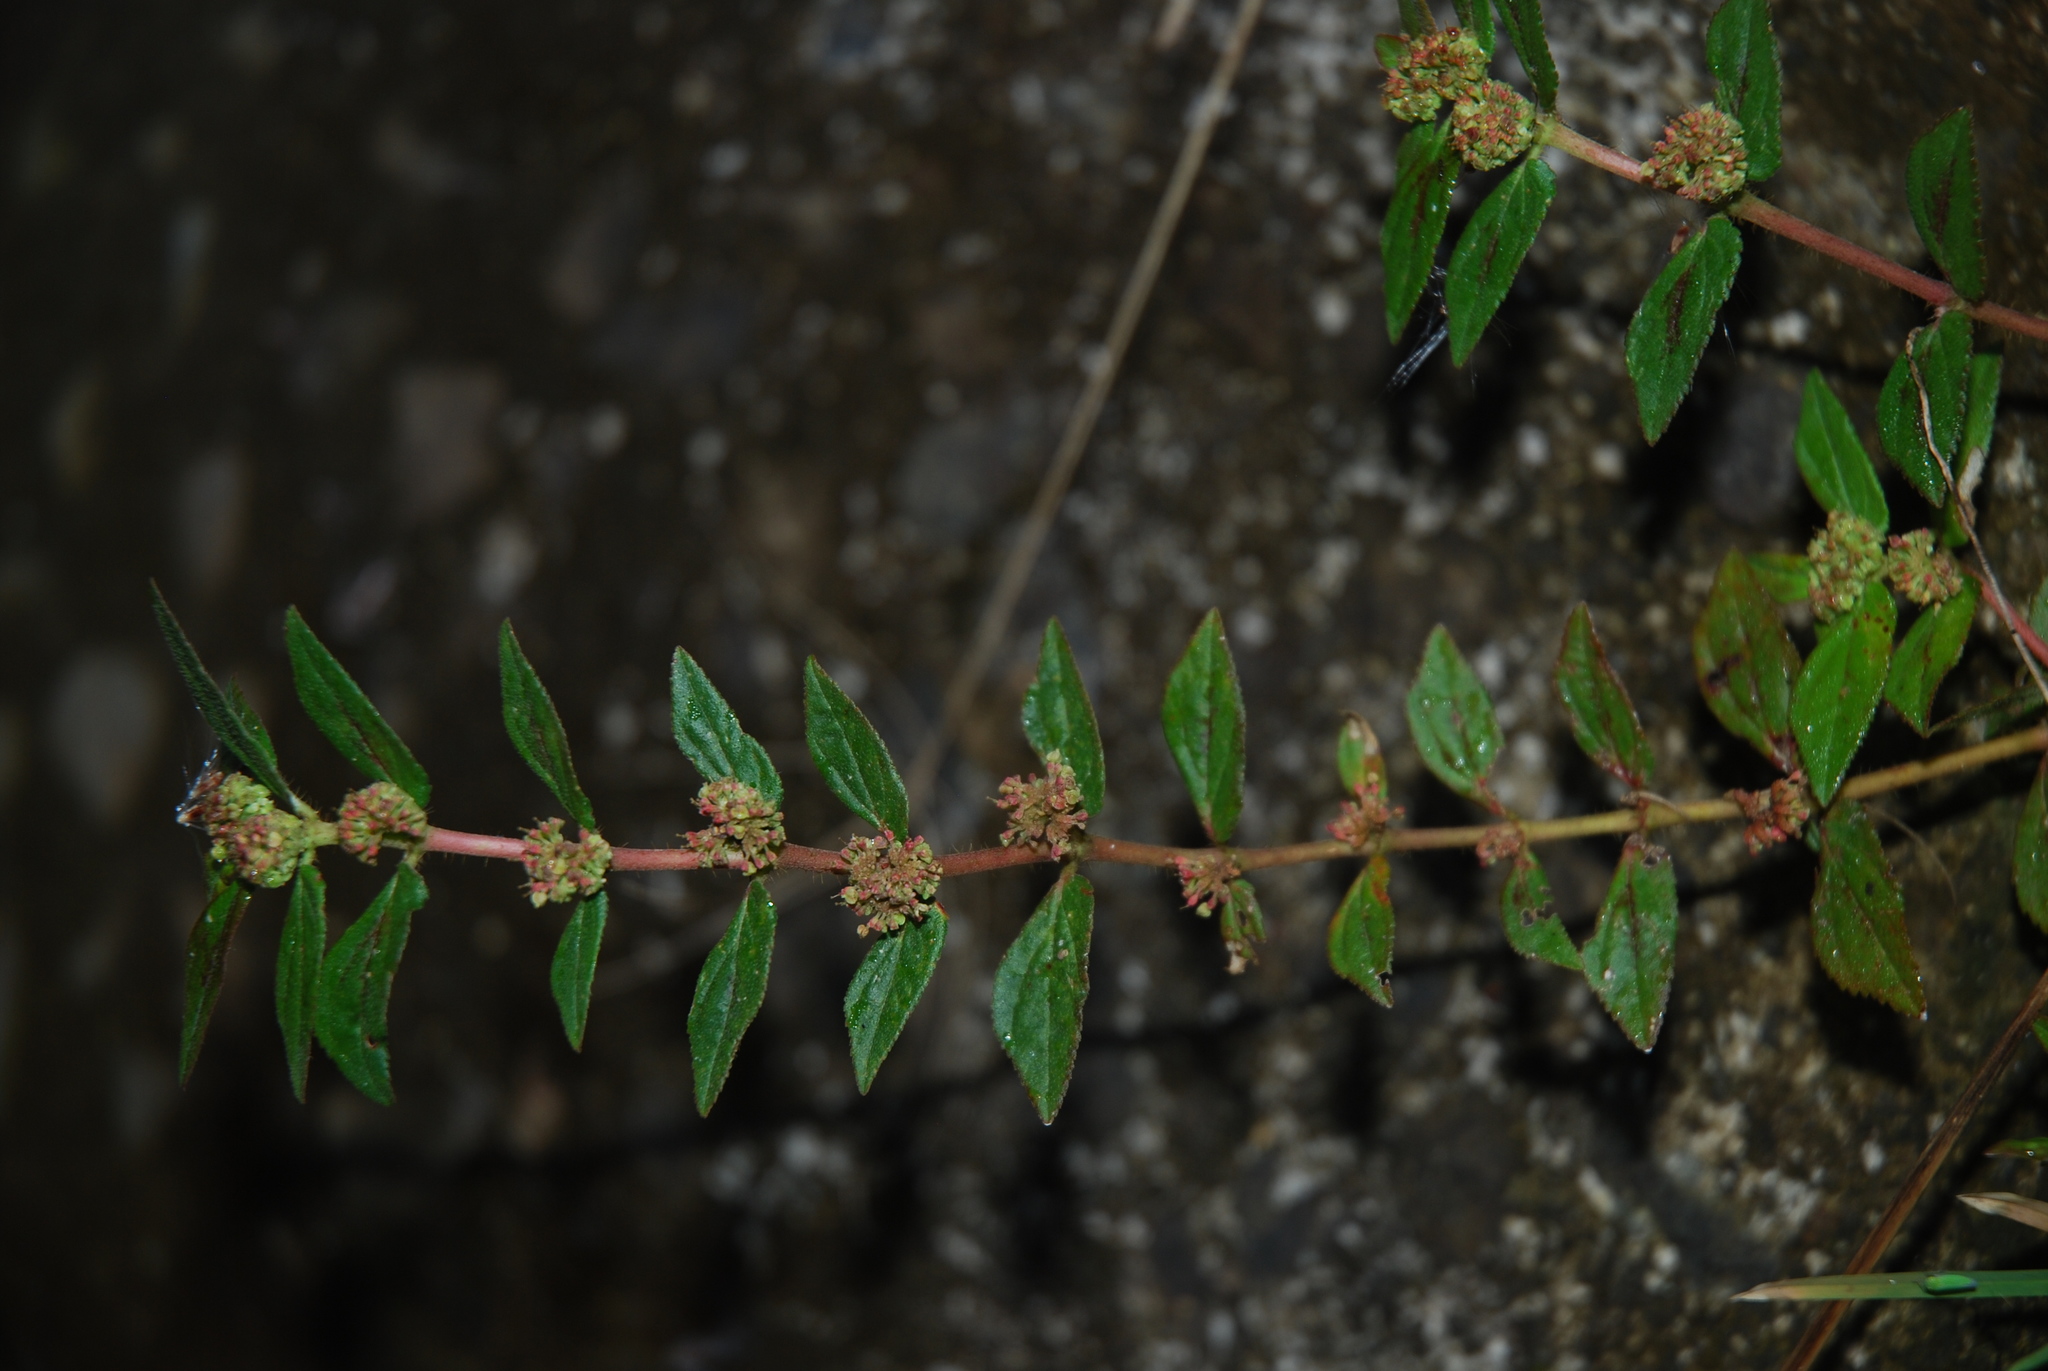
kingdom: Plantae
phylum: Tracheophyta
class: Magnoliopsida
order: Malpighiales
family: Euphorbiaceae
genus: Euphorbia
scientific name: Euphorbia hirta
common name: Pillpod sandmat
